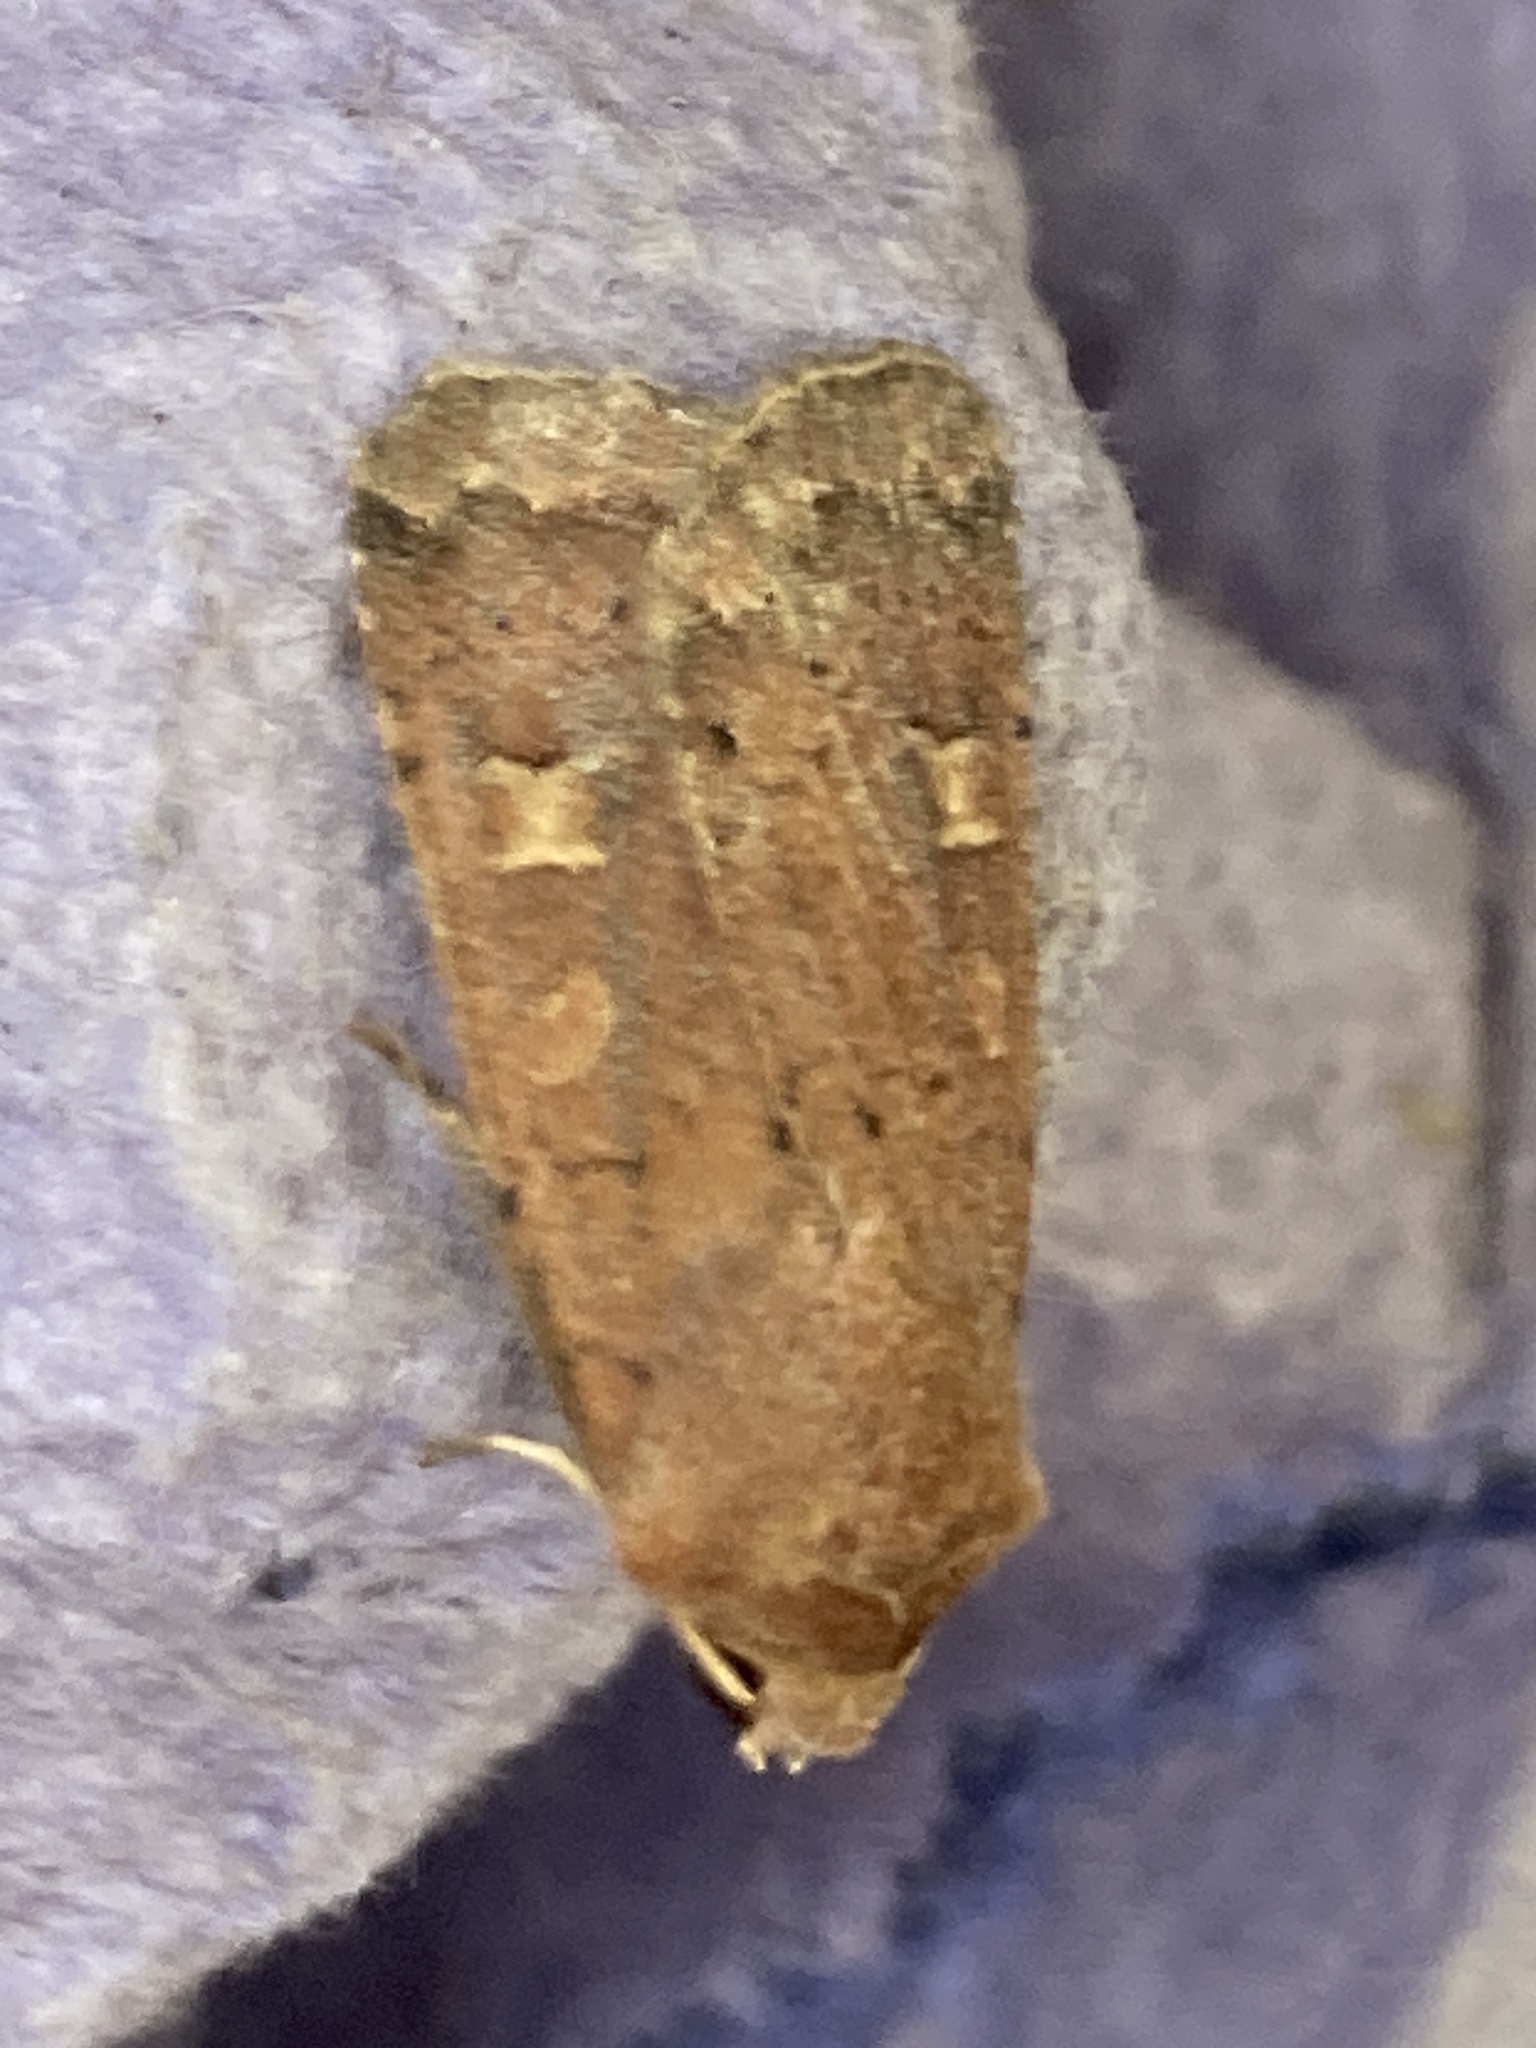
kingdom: Animalia
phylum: Arthropoda
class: Insecta
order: Lepidoptera
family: Noctuidae
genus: Xestia
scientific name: Xestia xanthographa
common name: Square-spot rustic
